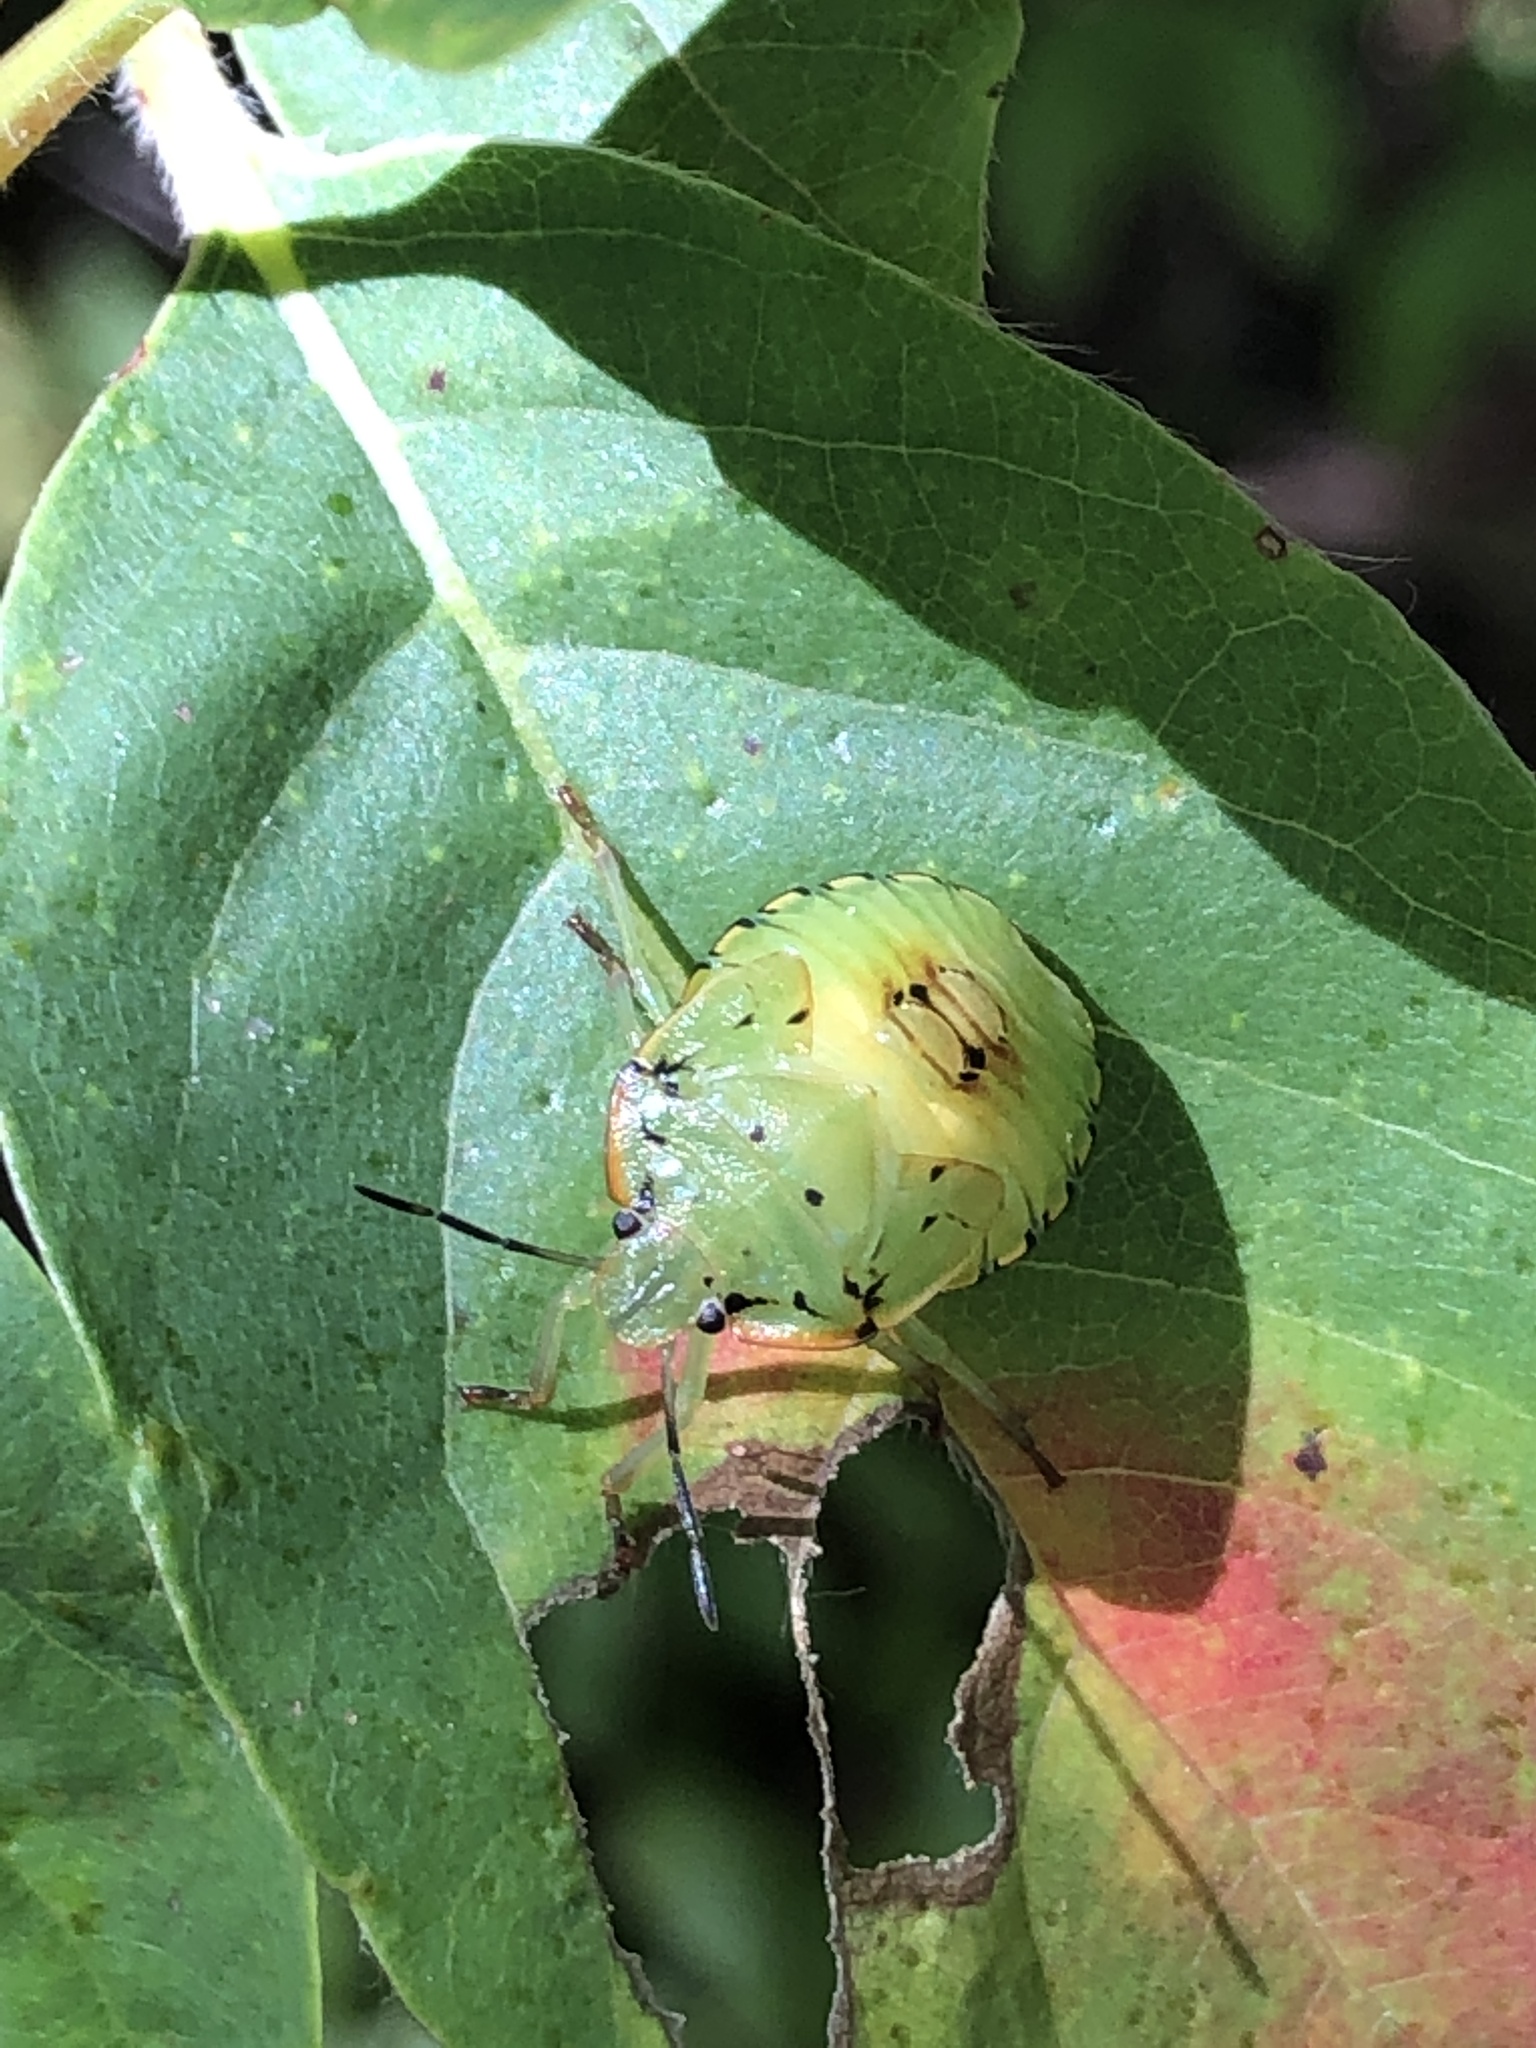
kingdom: Animalia
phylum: Arthropoda
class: Insecta
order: Hemiptera
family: Pentatomidae
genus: Chinavia
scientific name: Chinavia hilaris
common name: Green stink bug
